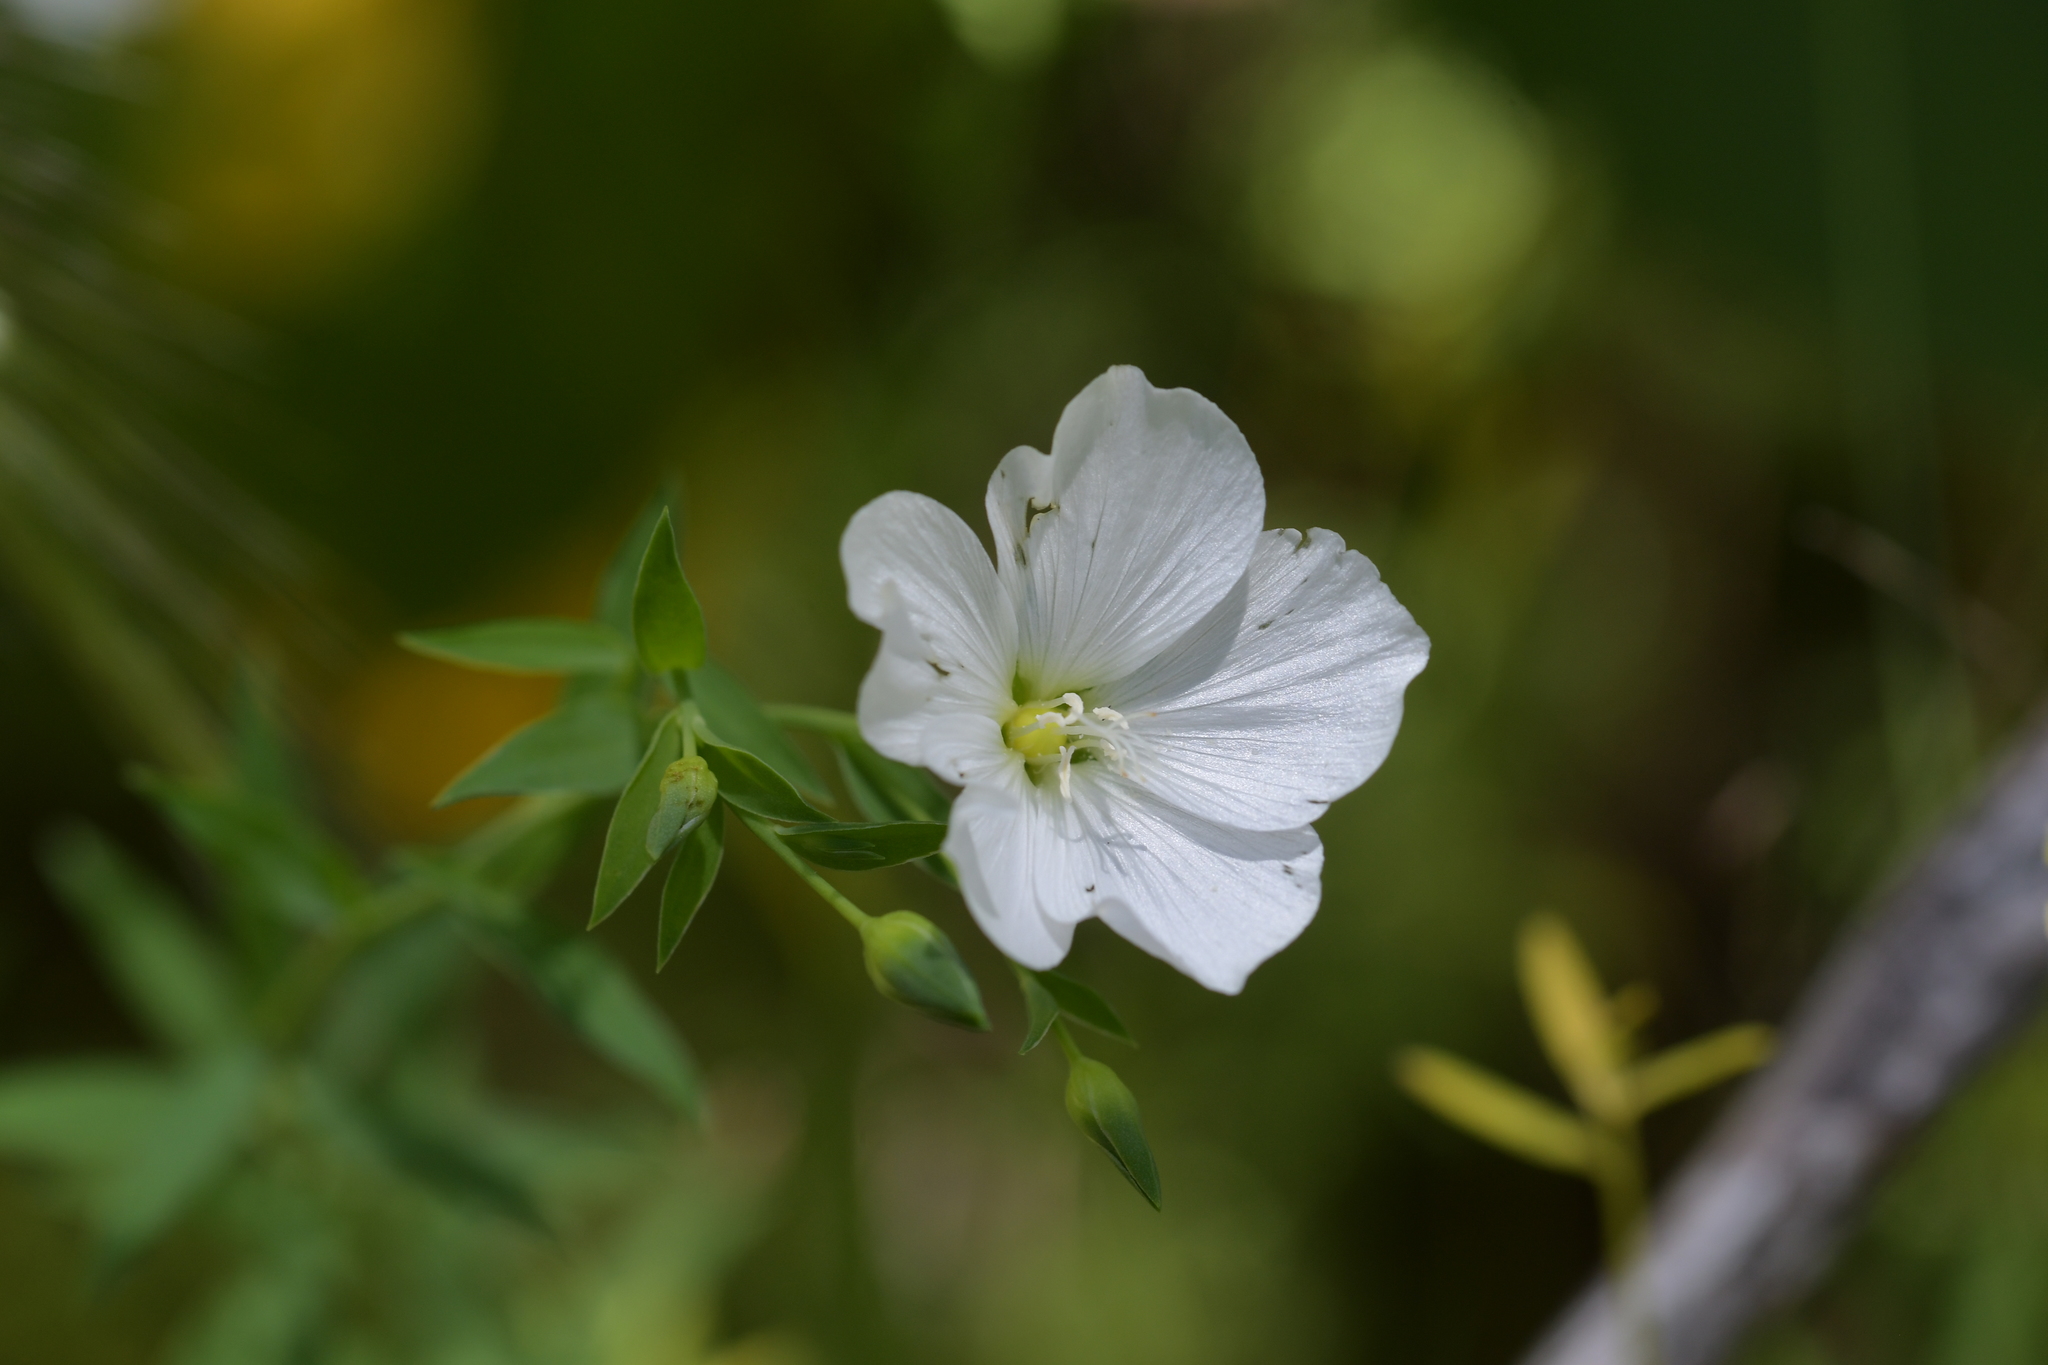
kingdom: Plantae
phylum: Tracheophyta
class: Magnoliopsida
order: Malpighiales
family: Linaceae
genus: Linum
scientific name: Linum monogynum
